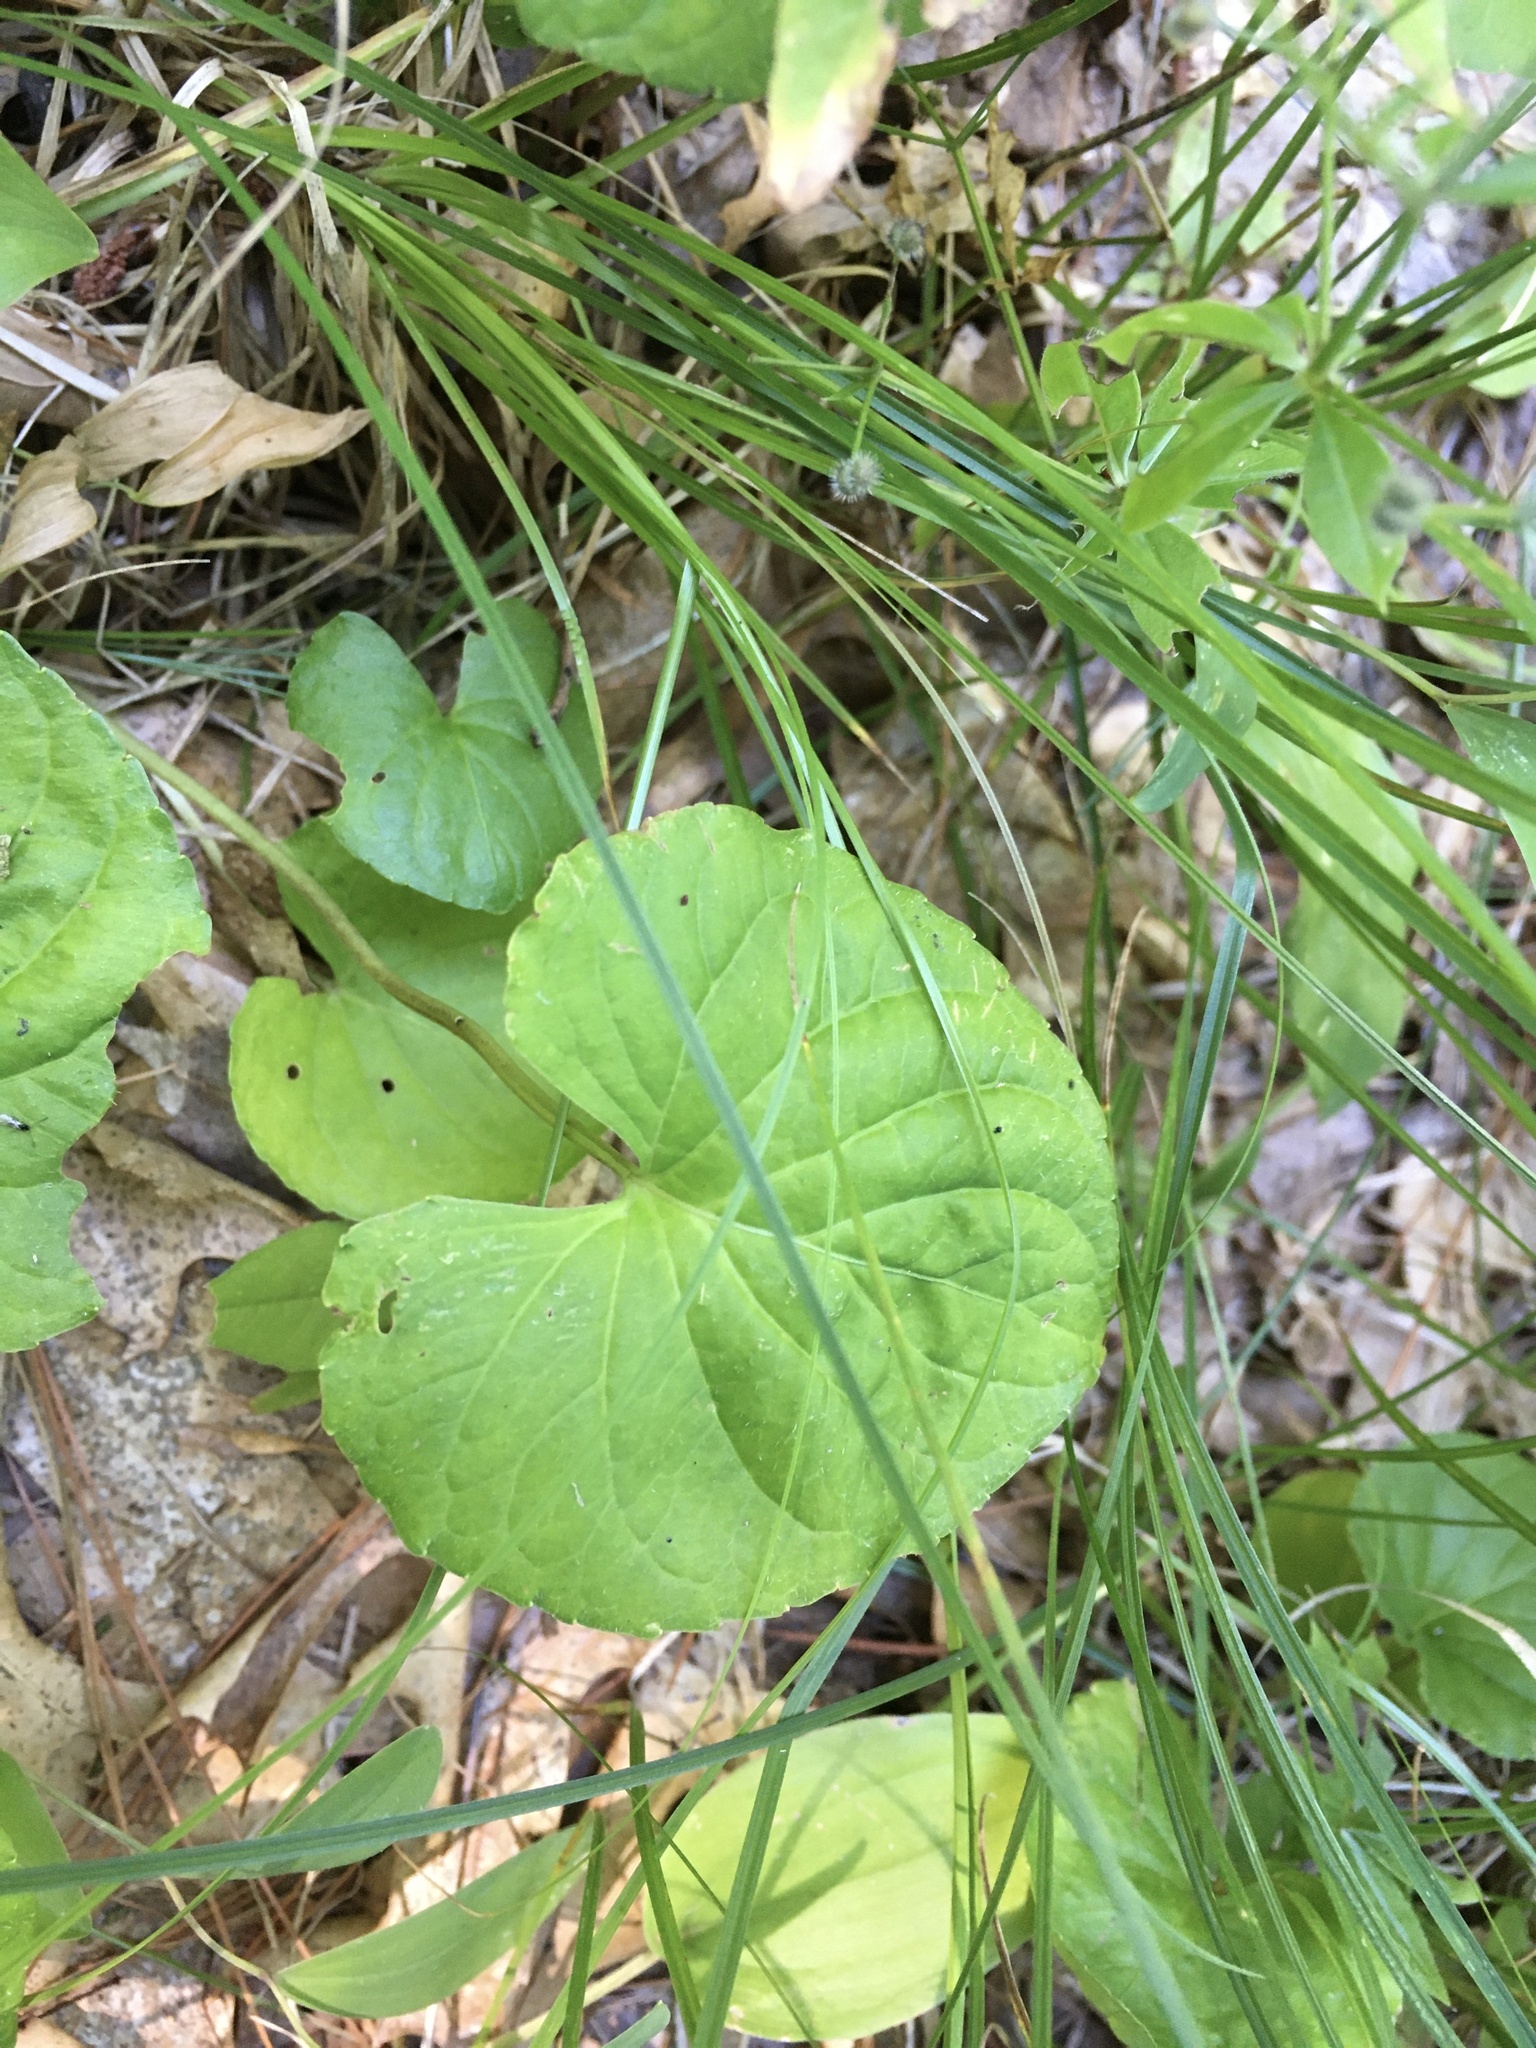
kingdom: Plantae
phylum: Tracheophyta
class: Magnoliopsida
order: Malpighiales
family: Violaceae
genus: Viola
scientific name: Viola blanda
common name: Sweet white violet
